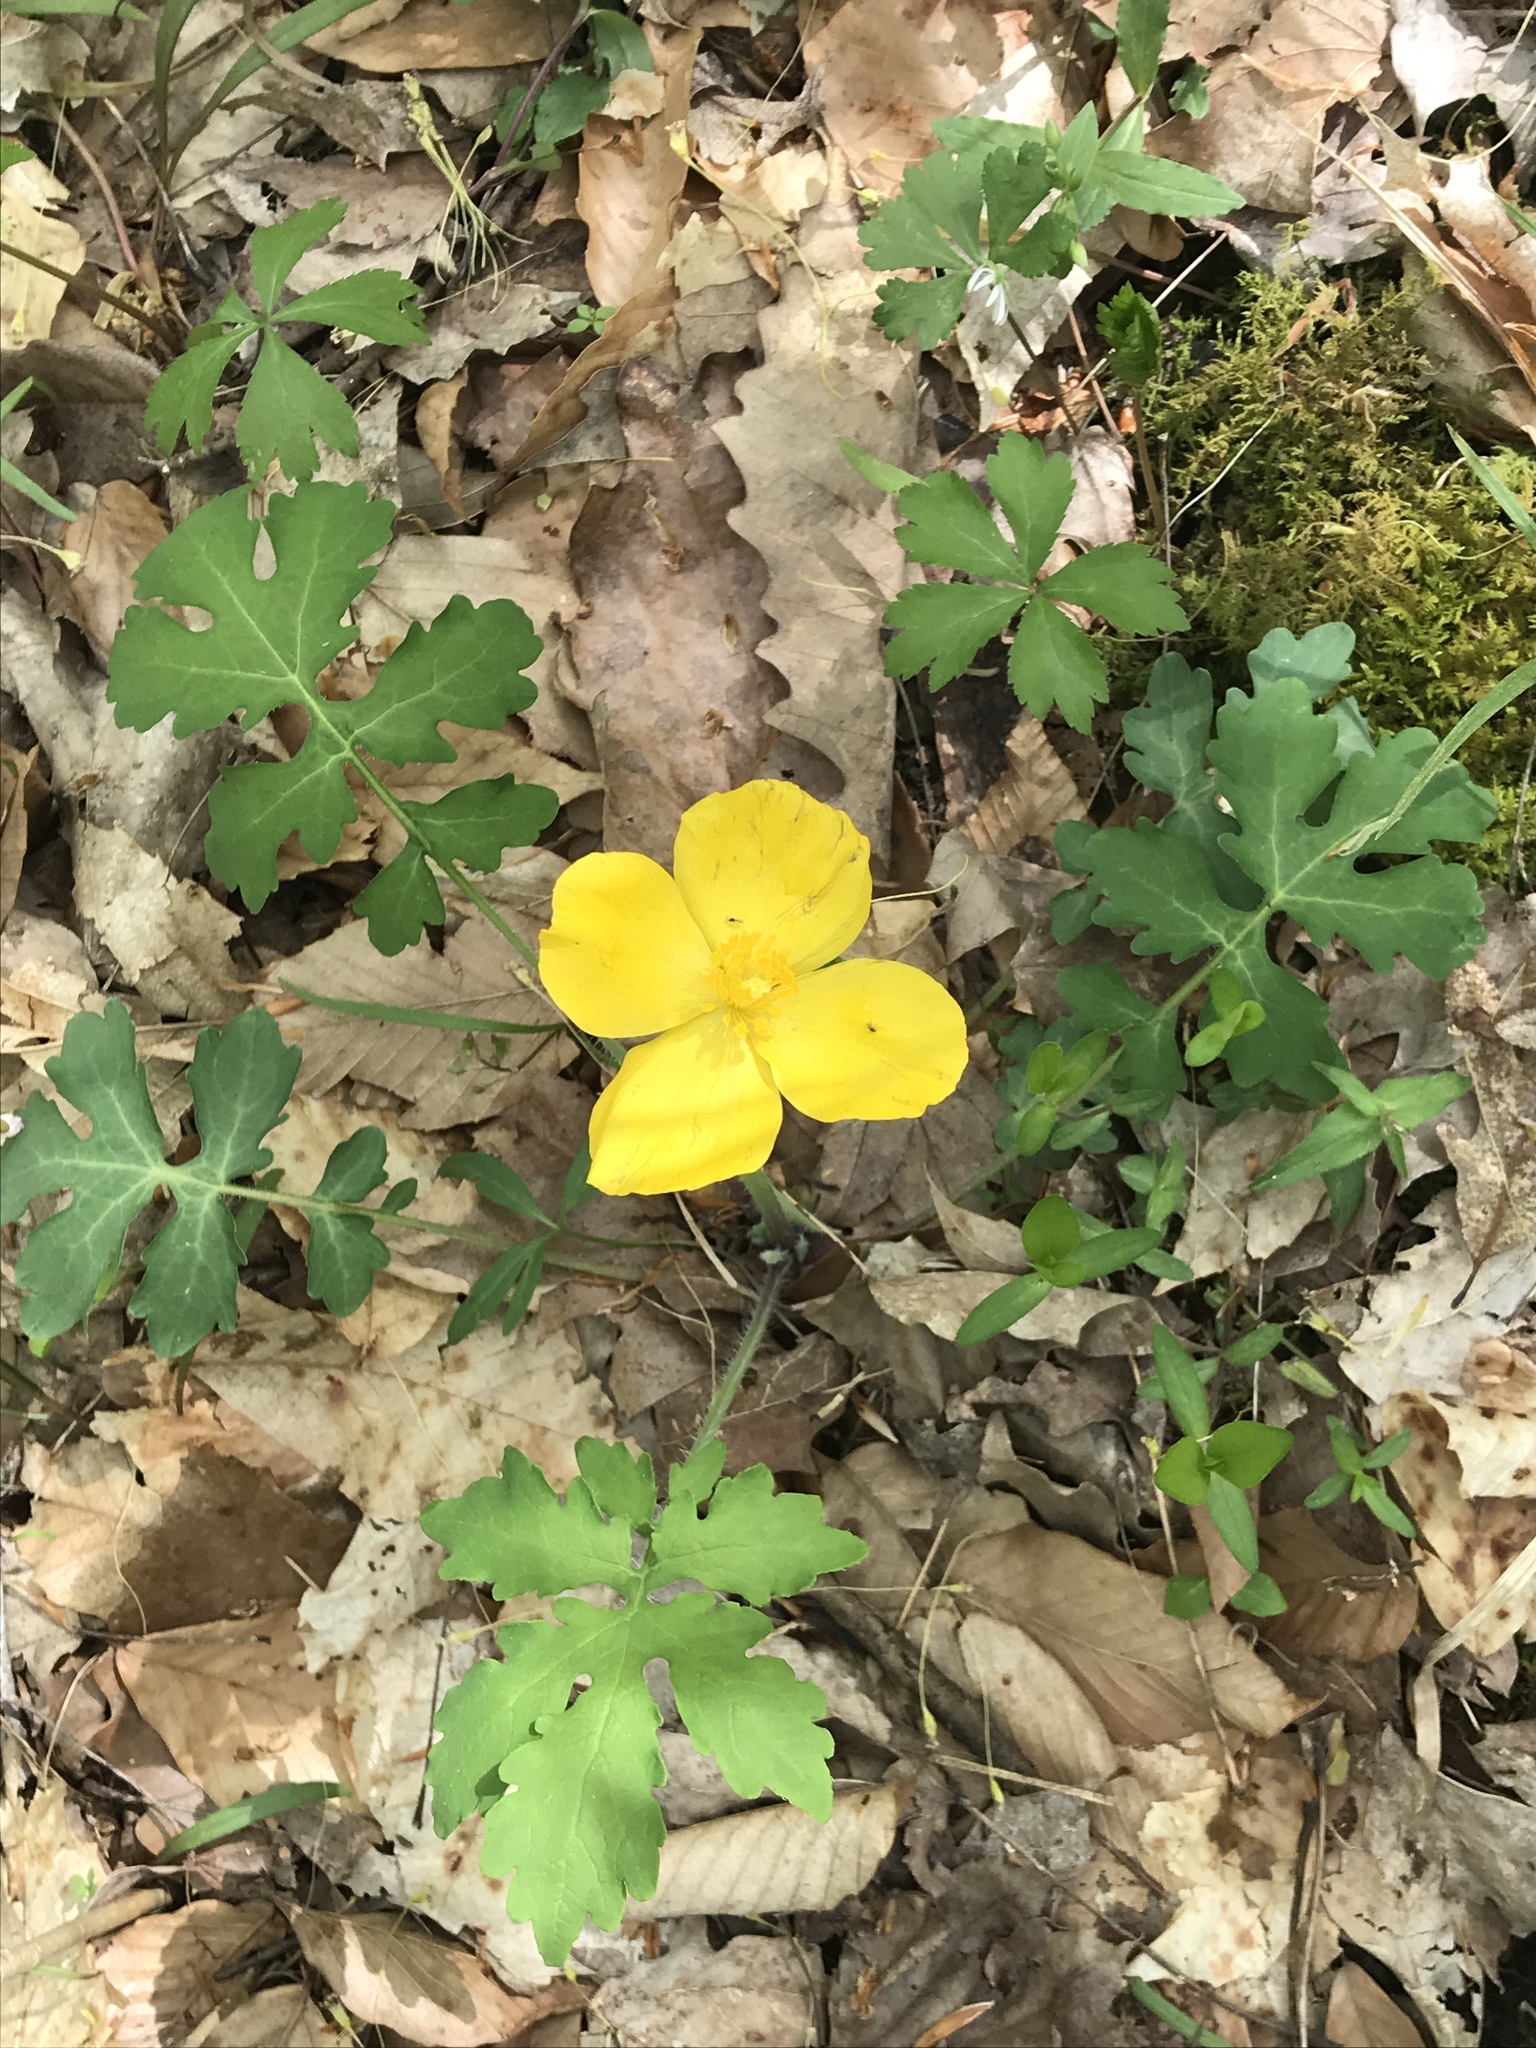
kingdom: Plantae
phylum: Tracheophyta
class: Magnoliopsida
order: Ranunculales
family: Papaveraceae
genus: Stylophorum
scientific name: Stylophorum diphyllum
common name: Celandine poppy
